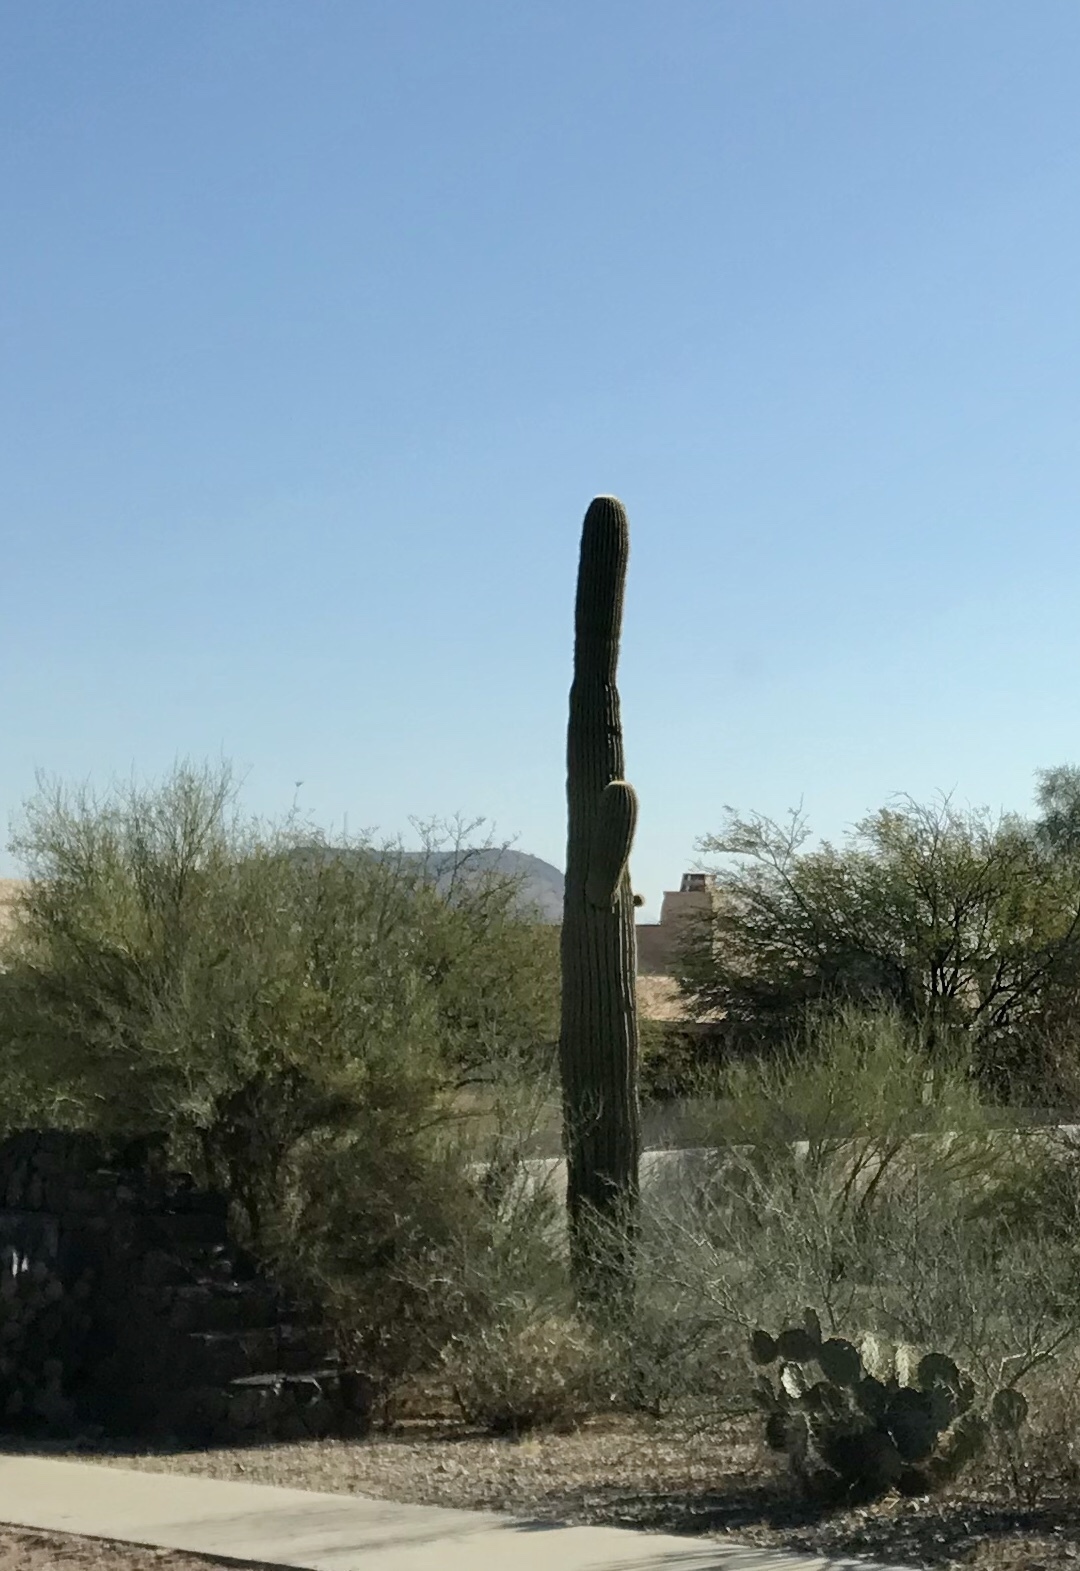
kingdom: Plantae
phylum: Tracheophyta
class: Magnoliopsida
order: Caryophyllales
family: Cactaceae
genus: Carnegiea
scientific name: Carnegiea gigantea
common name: Saguaro
